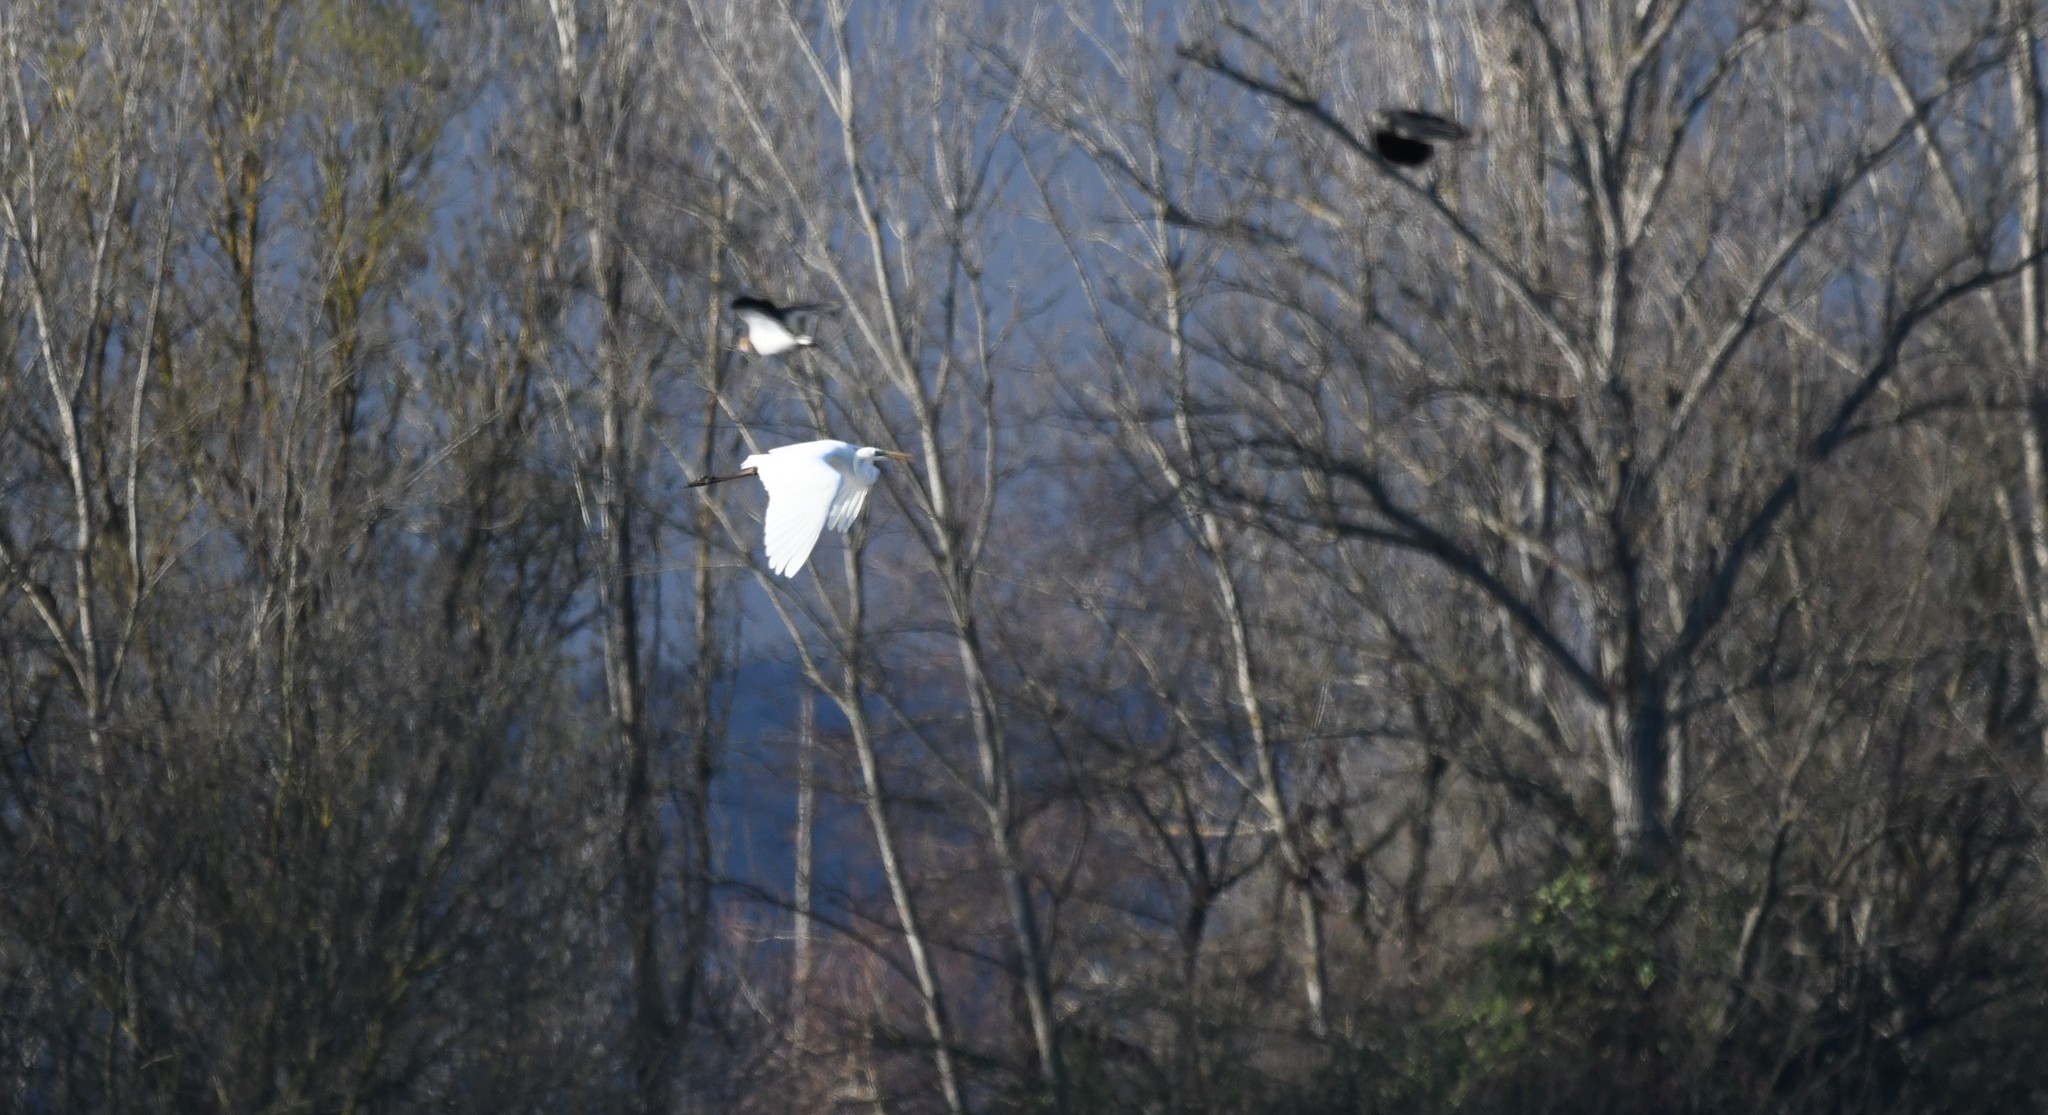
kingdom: Animalia
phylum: Chordata
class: Aves
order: Pelecaniformes
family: Ardeidae
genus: Ardea
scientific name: Ardea alba
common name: Great egret
